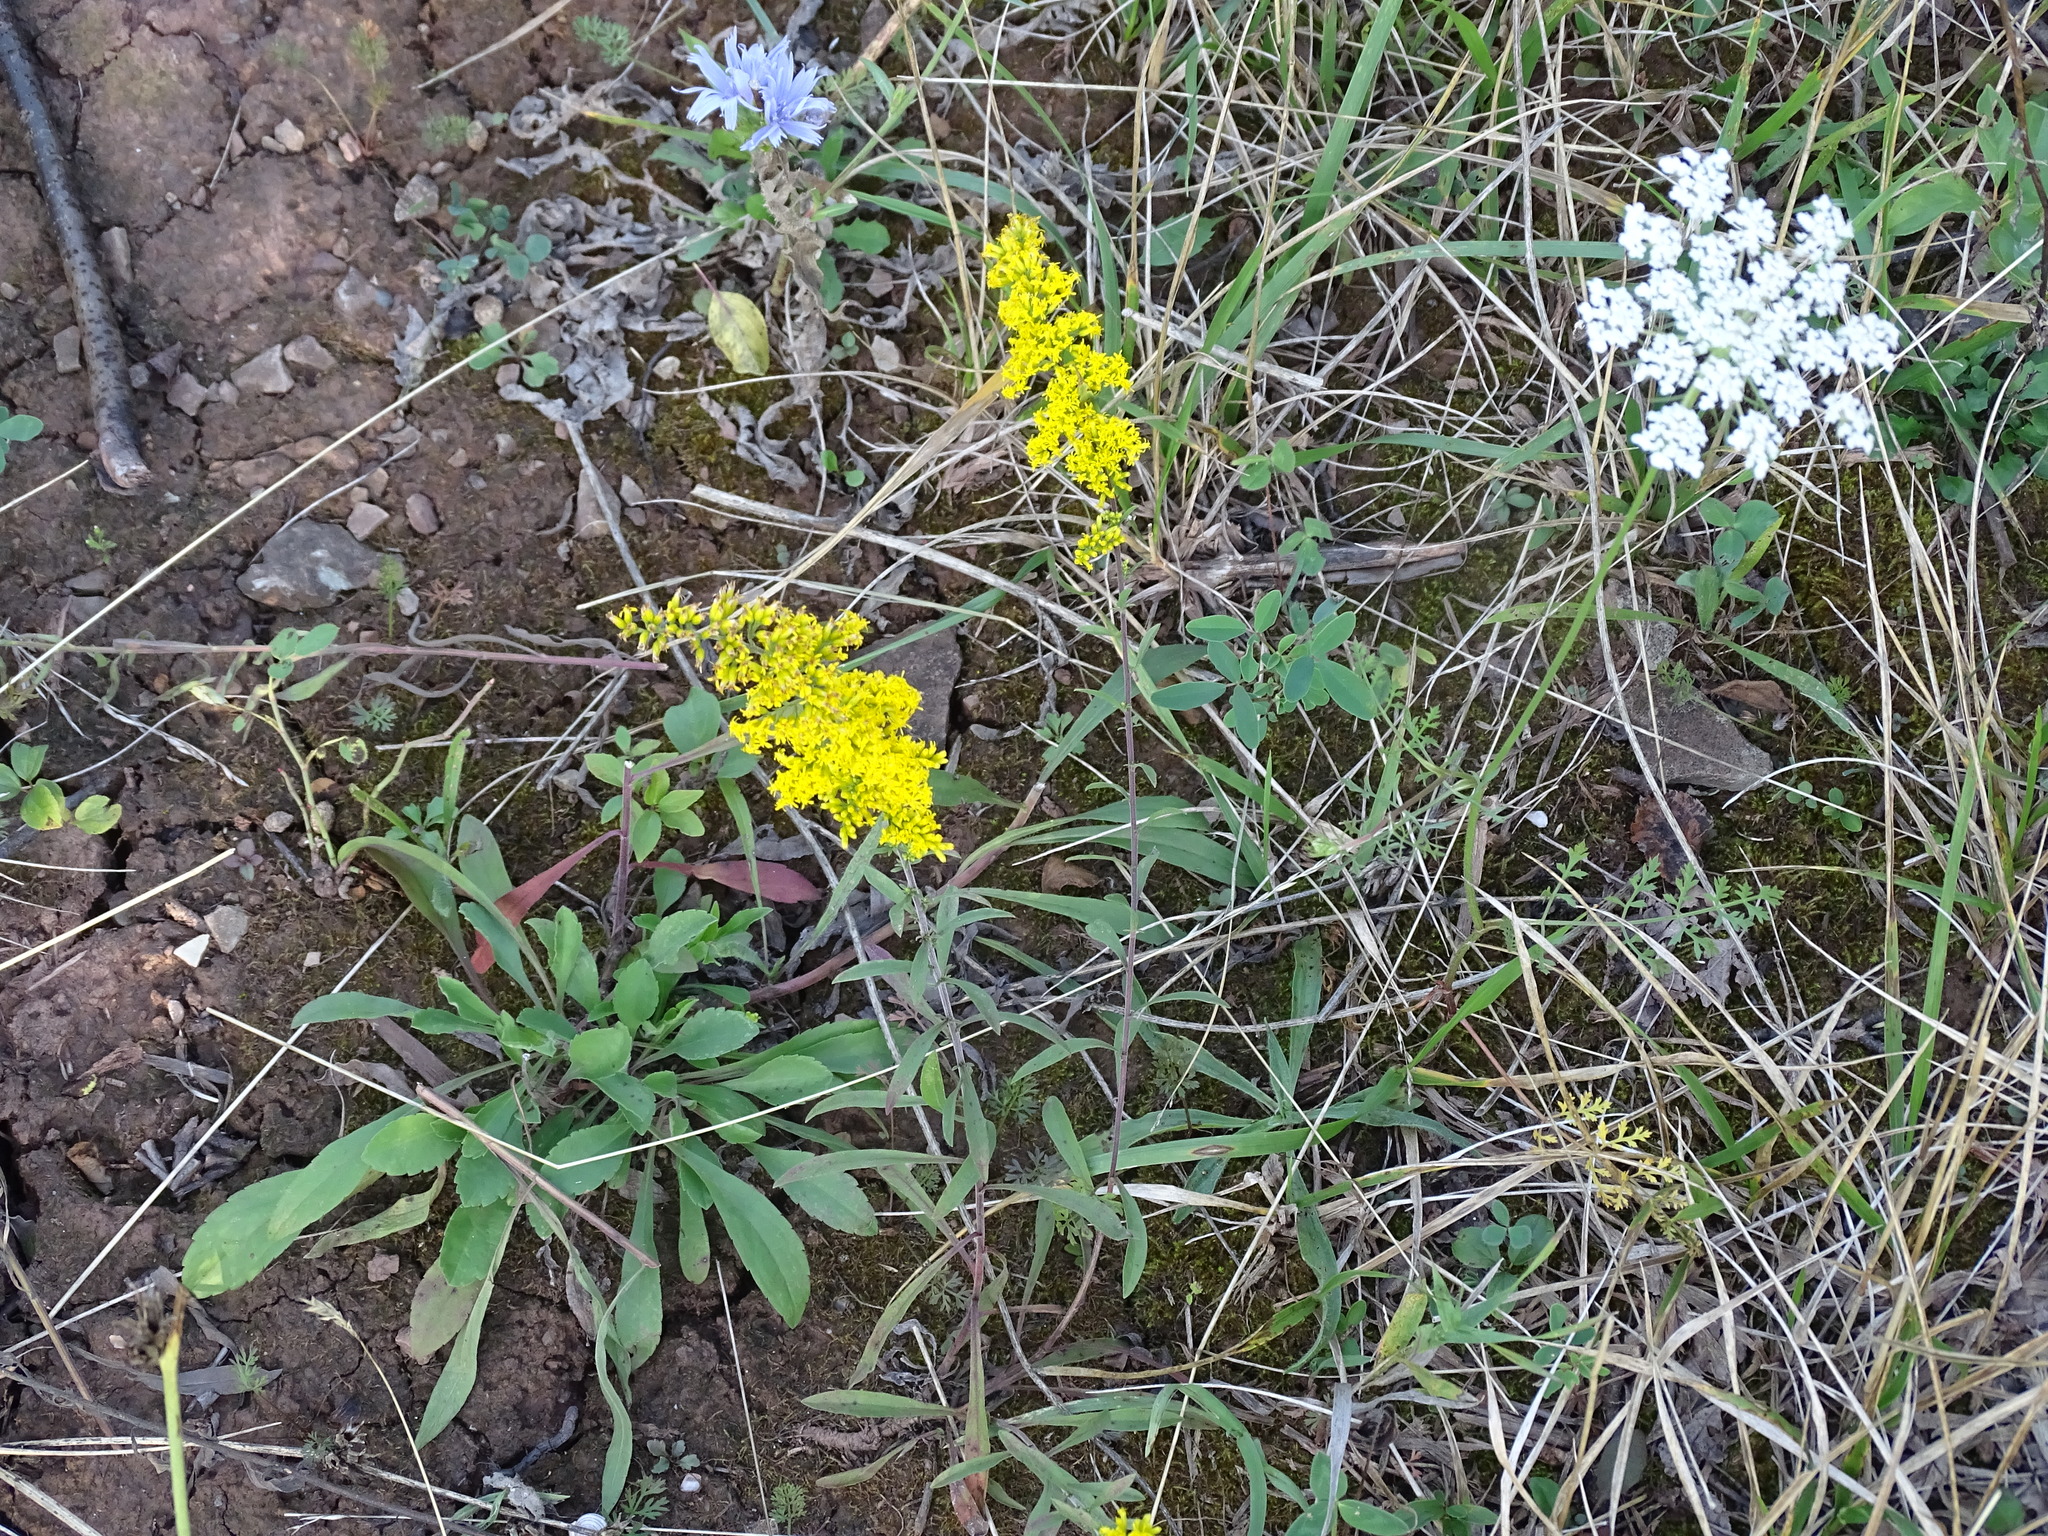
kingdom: Plantae
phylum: Tracheophyta
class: Magnoliopsida
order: Asterales
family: Asteraceae
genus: Solidago
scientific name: Solidago nemoralis
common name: Grey goldenrod
